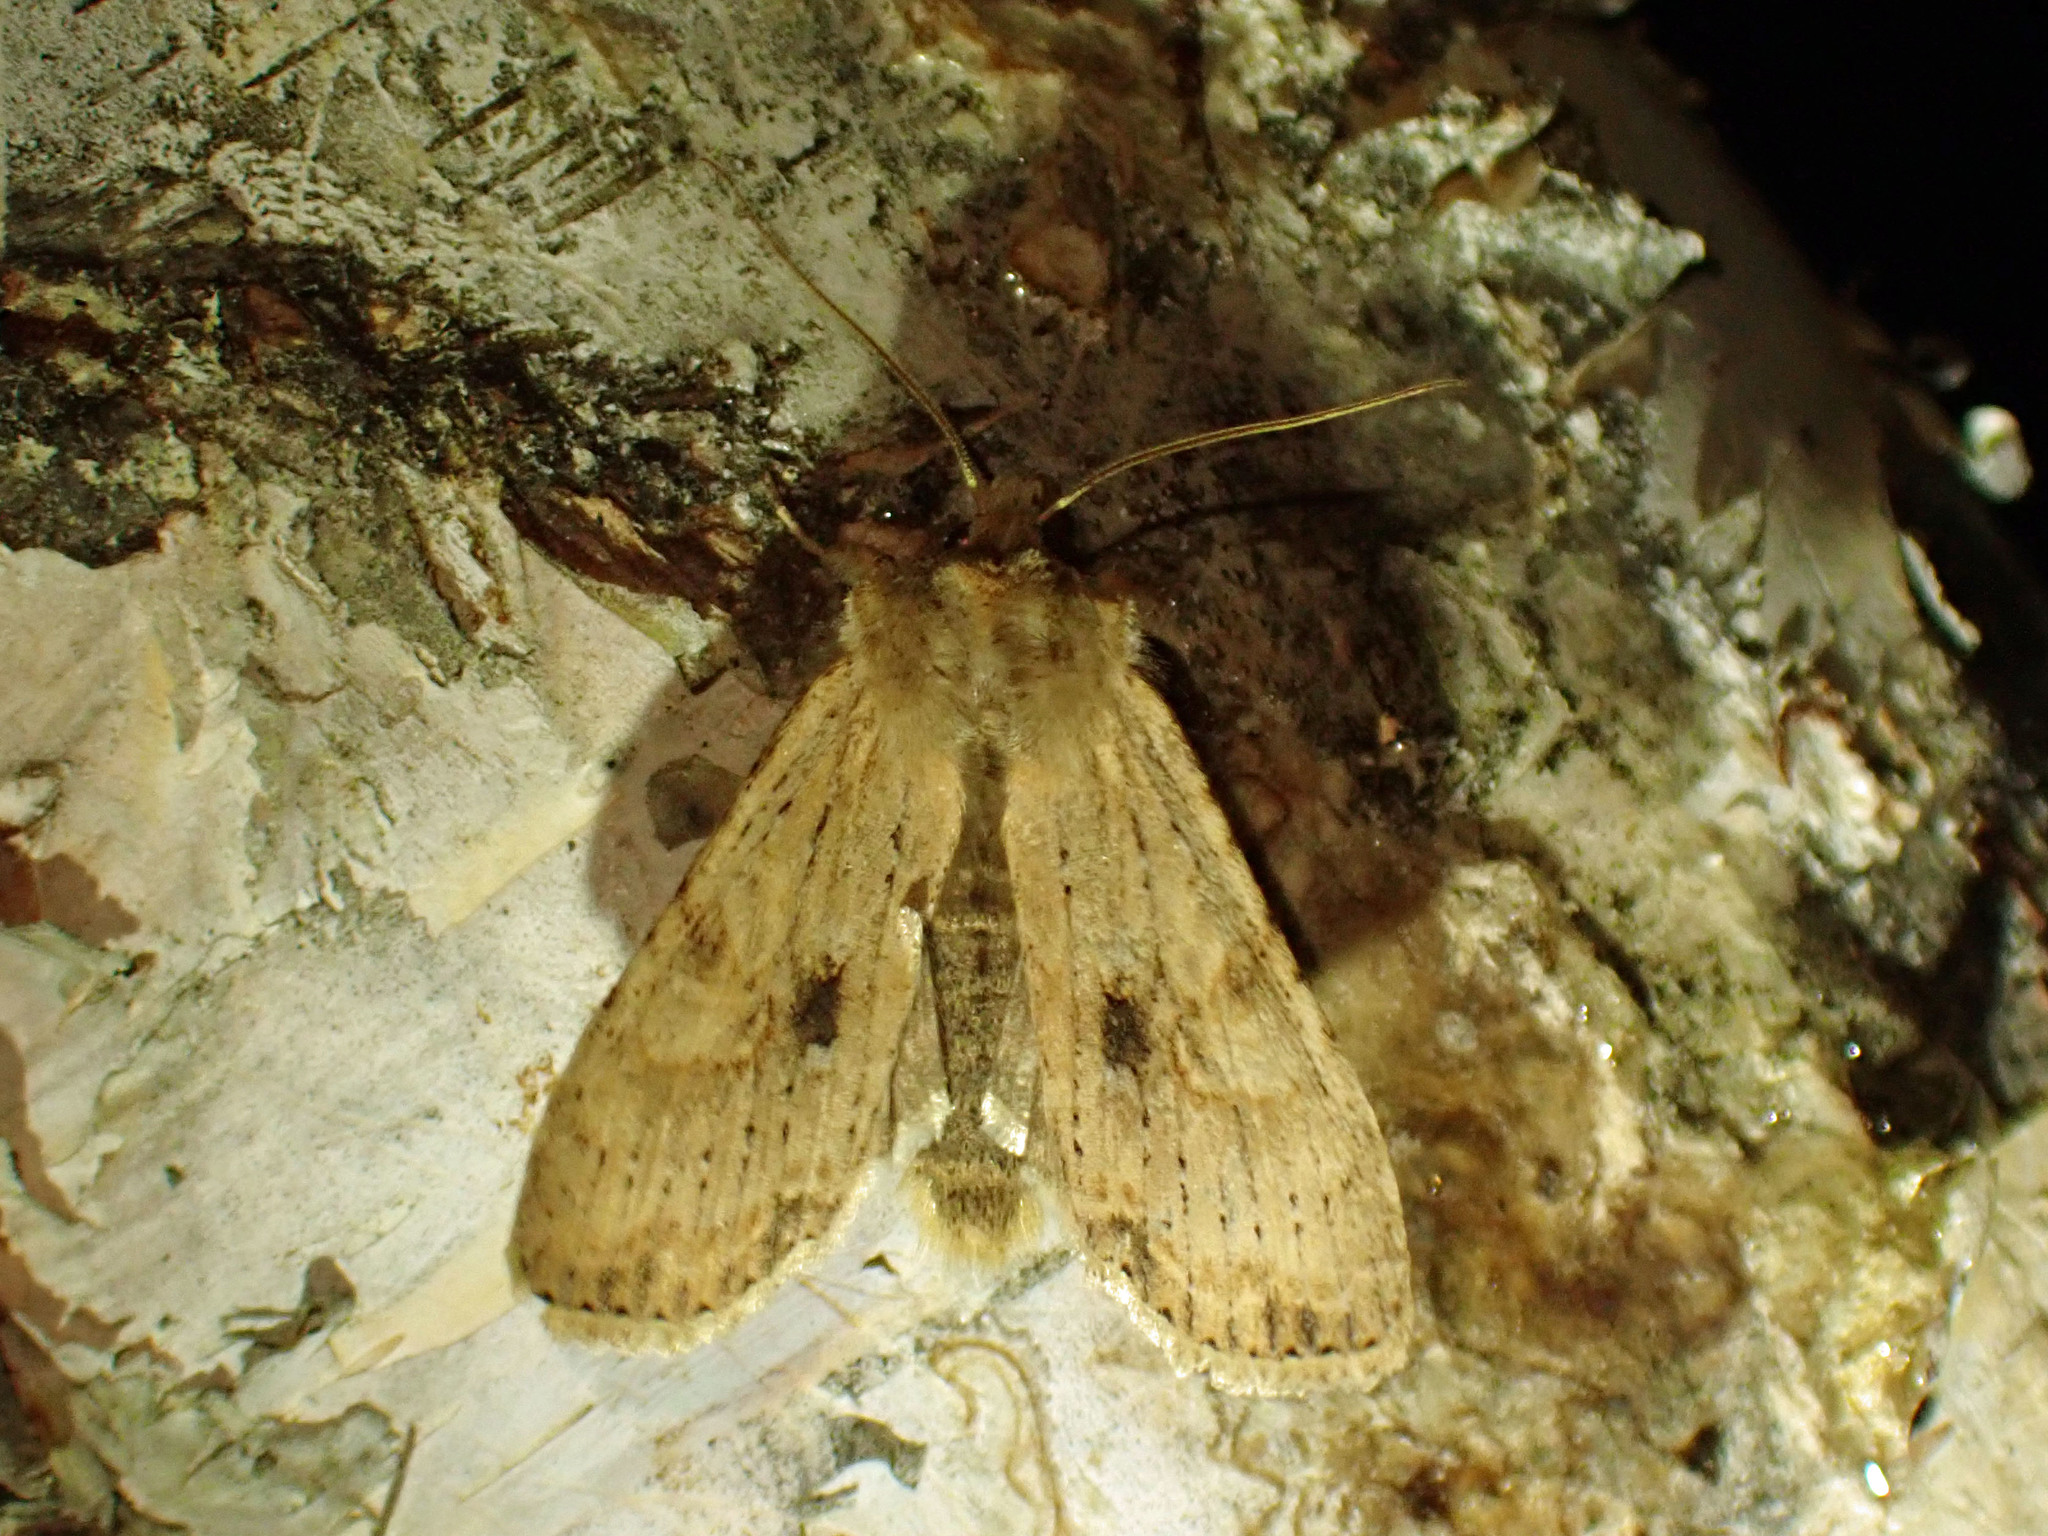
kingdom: Animalia
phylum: Arthropoda
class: Insecta
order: Lepidoptera
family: Noctuidae
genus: Lithophane
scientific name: Lithophane innominata
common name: Nameless pinion moth
